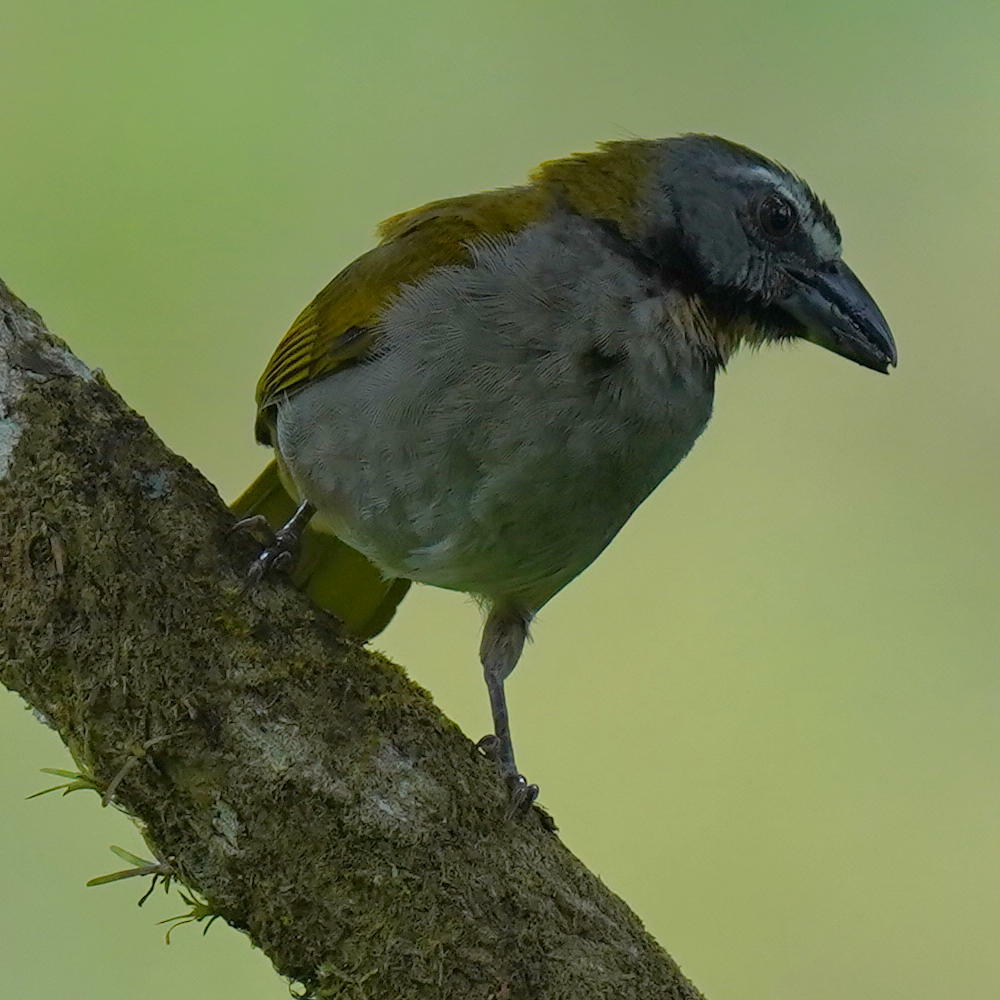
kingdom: Animalia
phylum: Chordata
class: Aves
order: Passeriformes
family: Thraupidae
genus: Saltator
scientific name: Saltator maximus
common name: Buff-throated saltator
